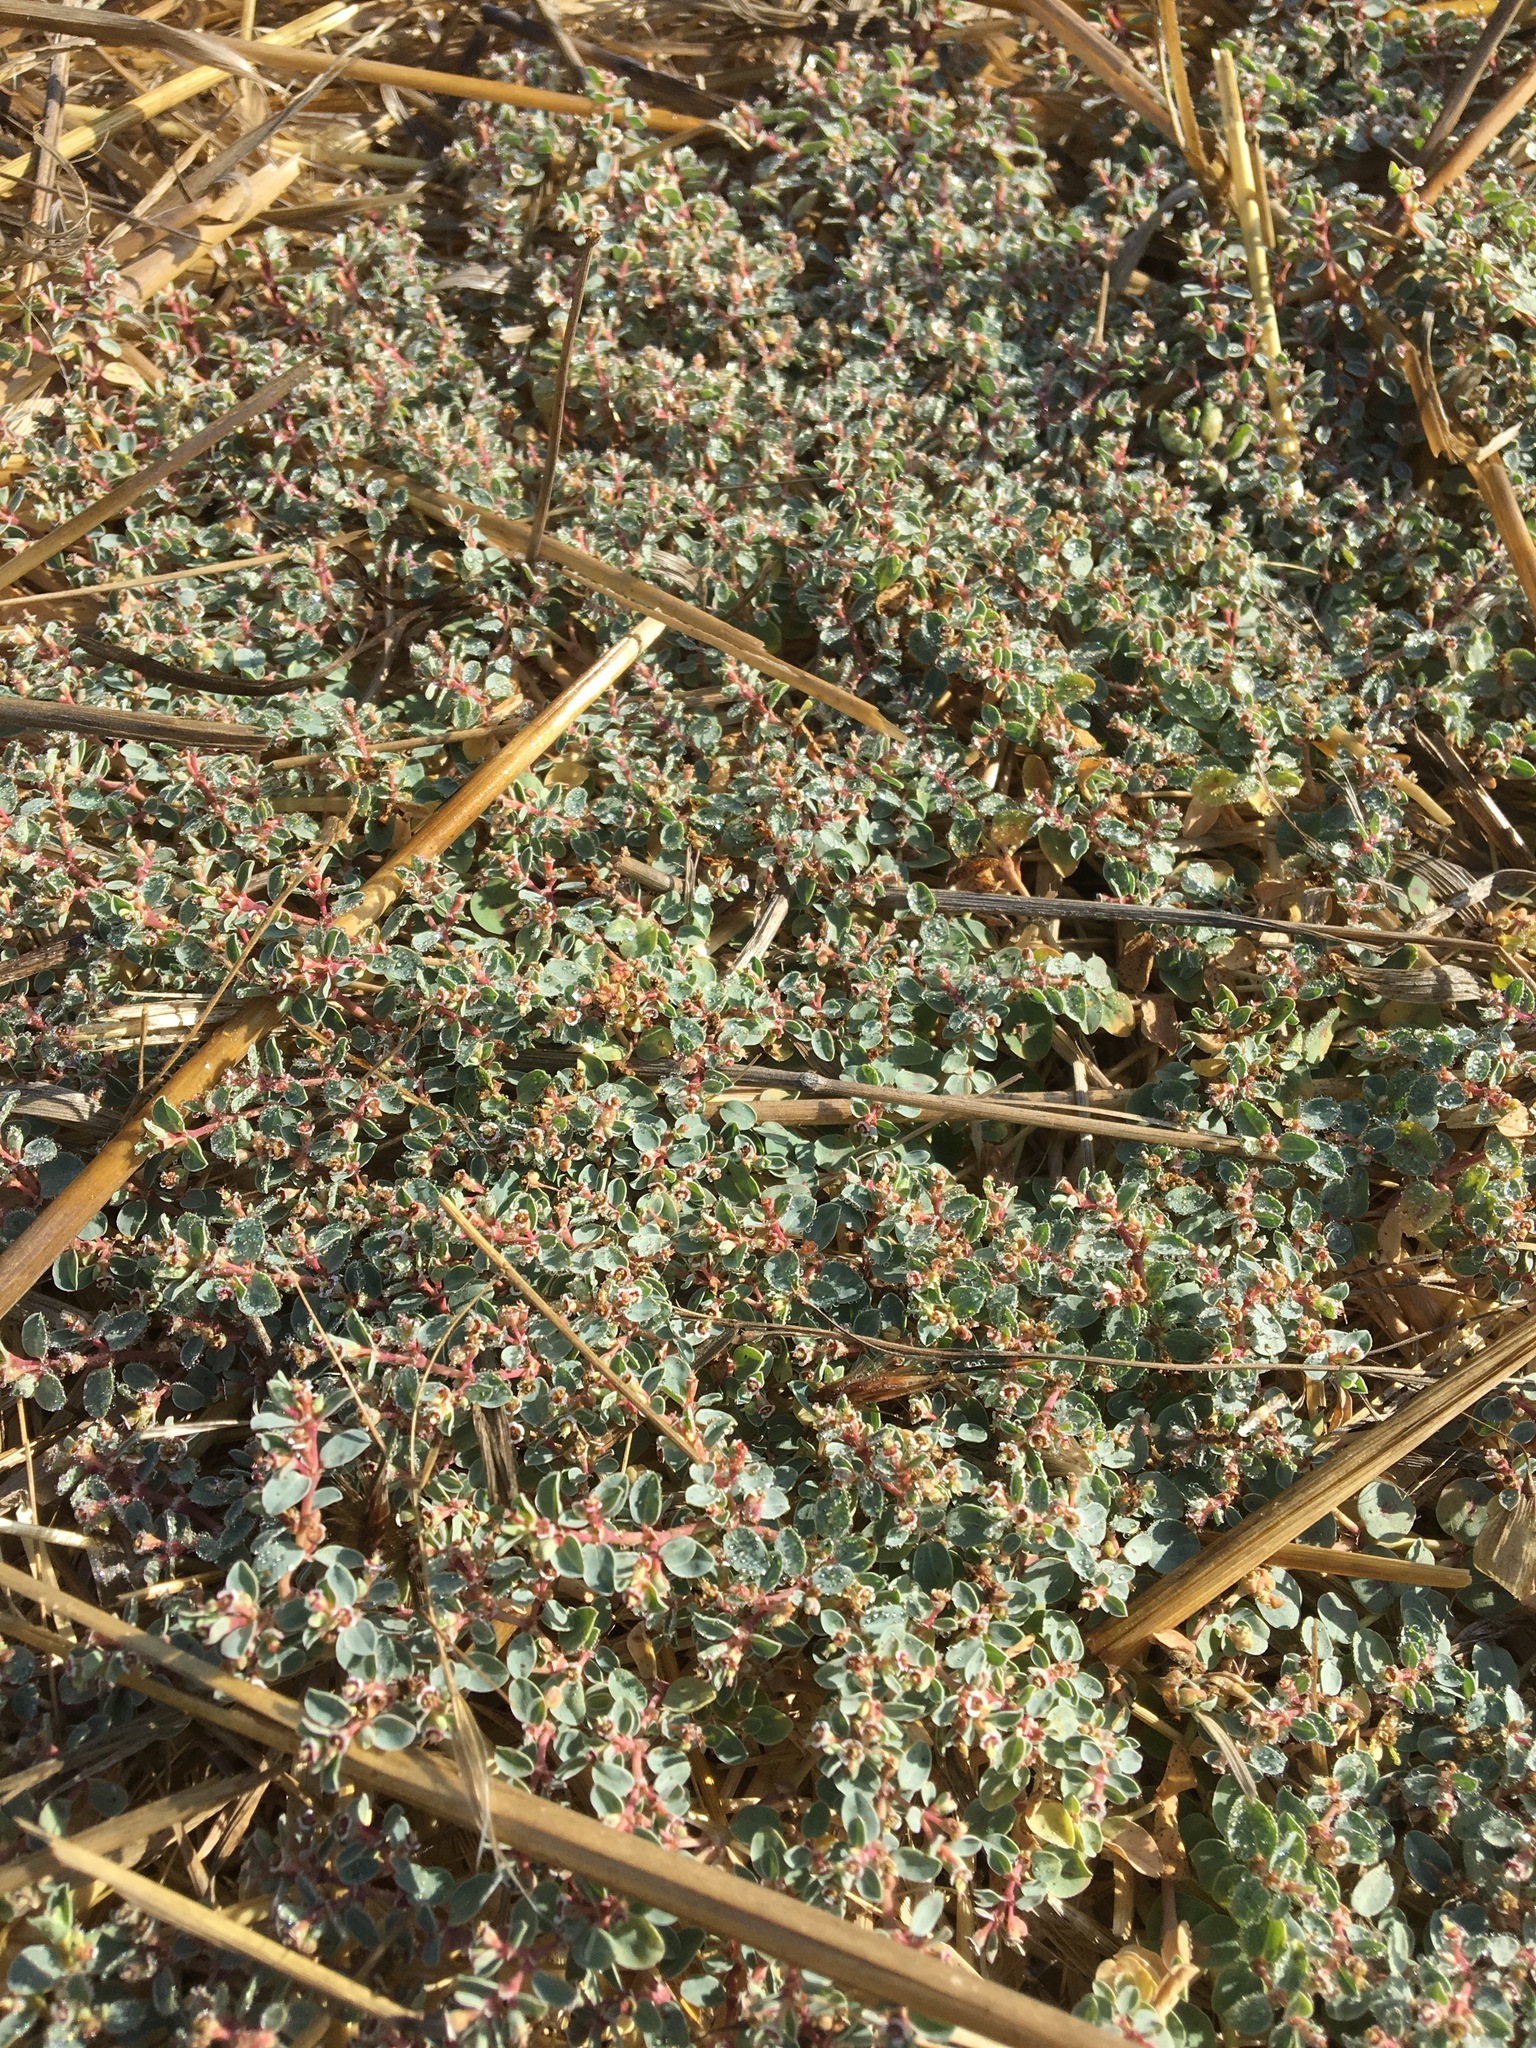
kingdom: Plantae
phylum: Tracheophyta
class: Magnoliopsida
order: Malpighiales
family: Euphorbiaceae
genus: Euphorbia
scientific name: Euphorbia albomarginata
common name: Whitemargin sandmat
